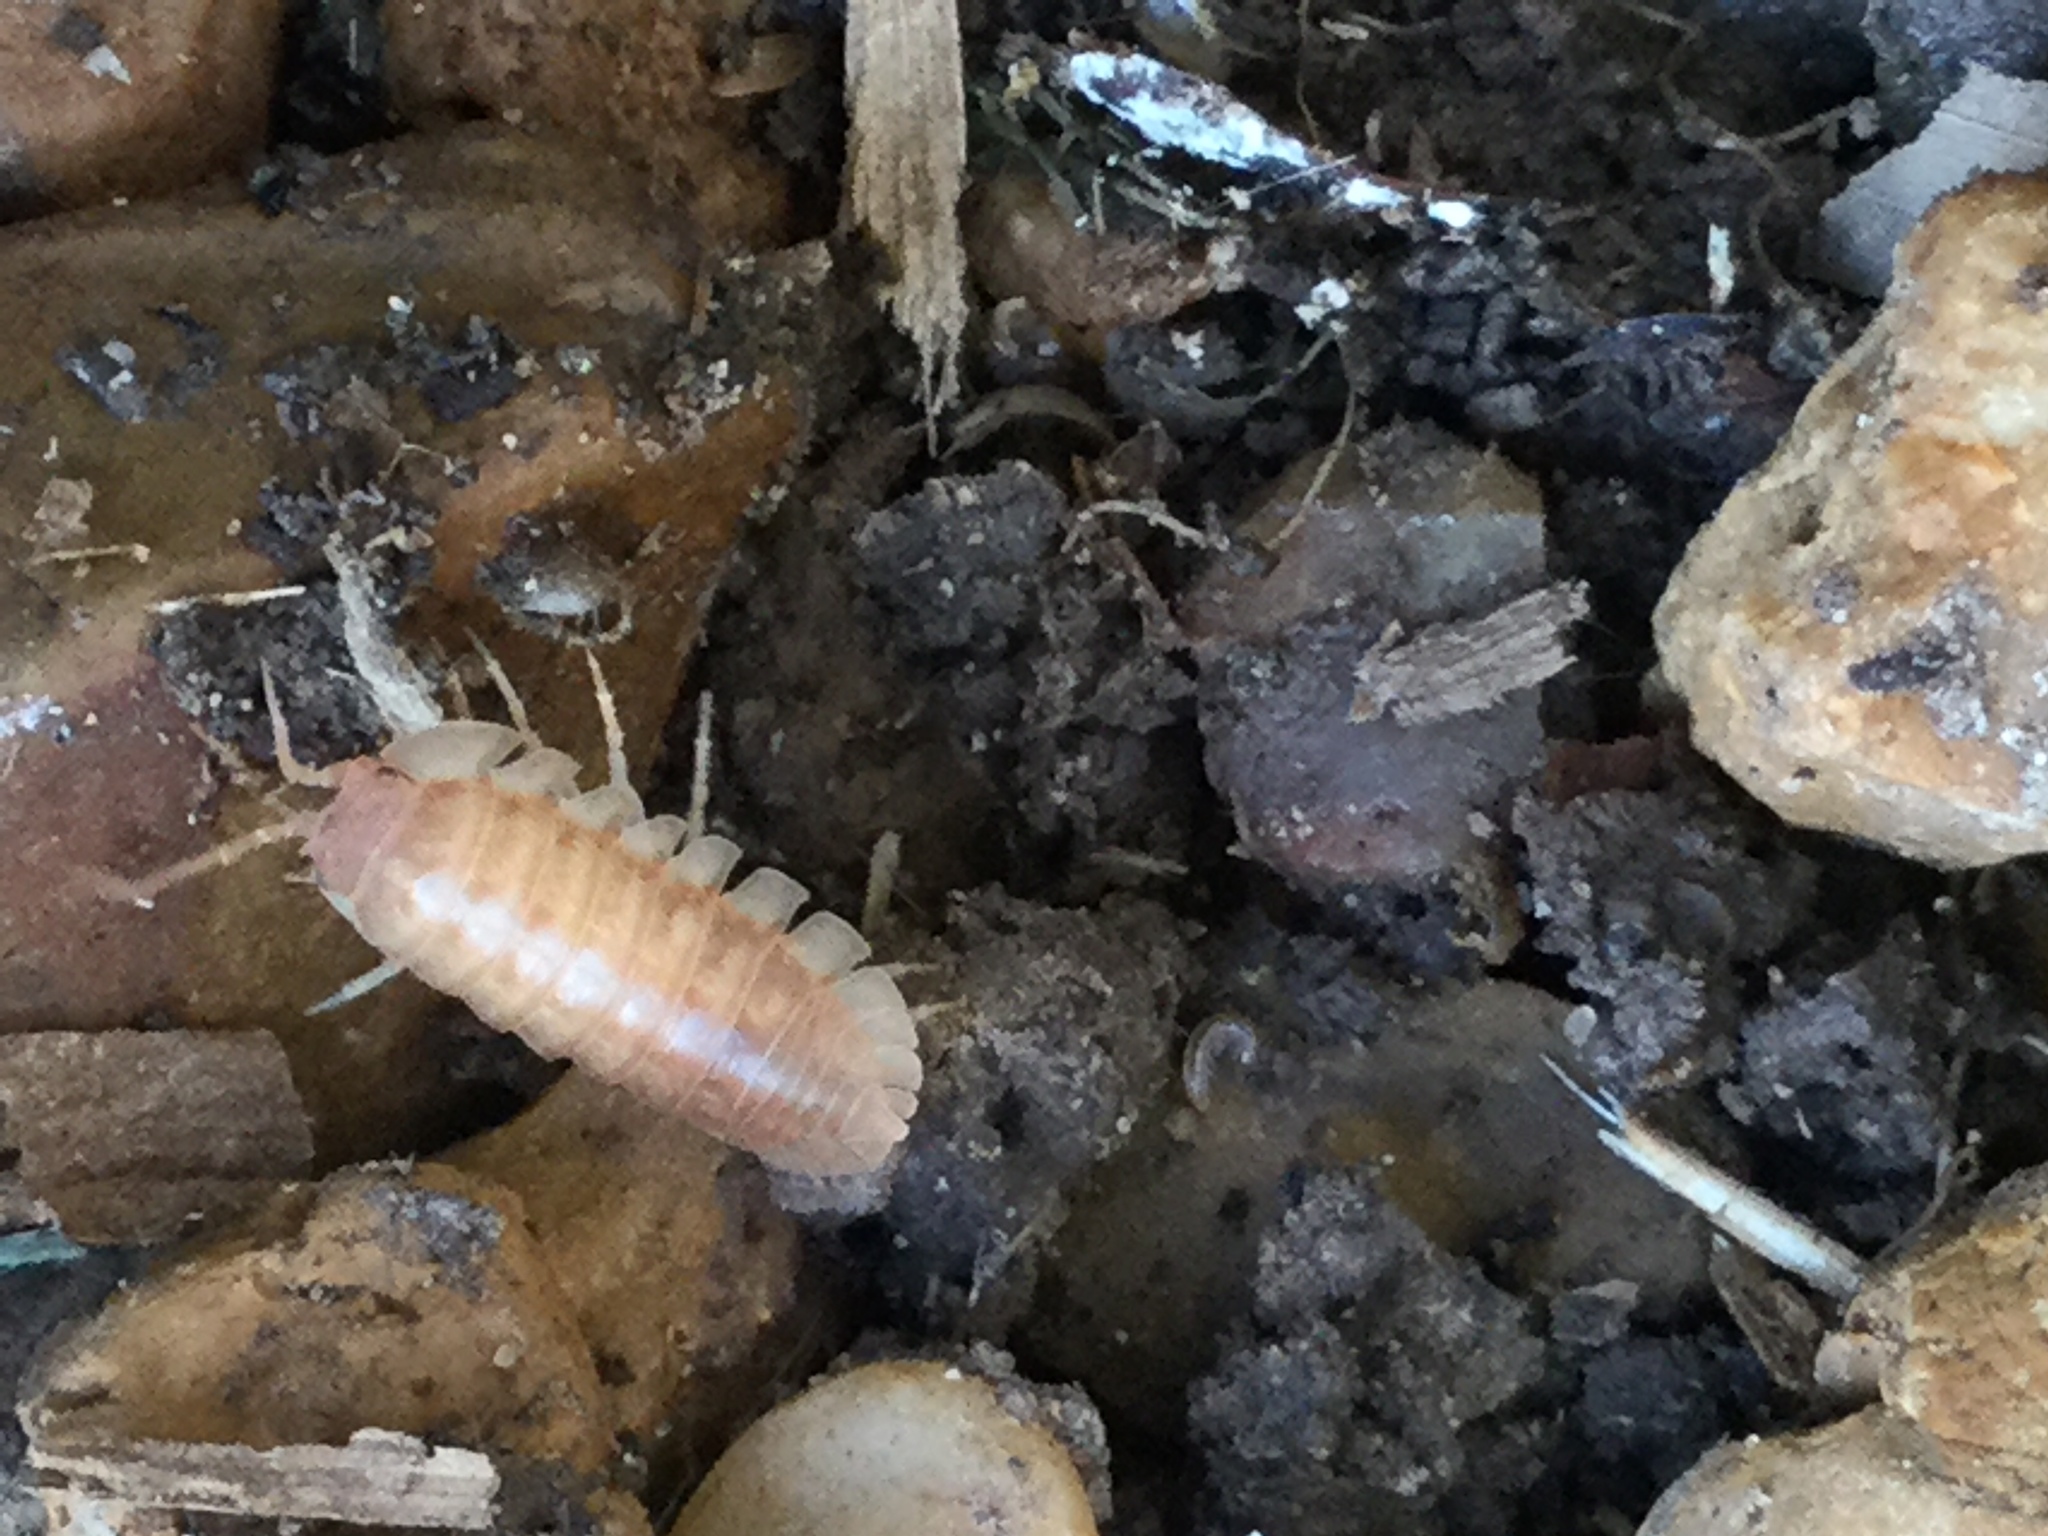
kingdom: Animalia
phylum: Arthropoda
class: Malacostraca
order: Isopoda
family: Armadillidiidae
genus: Armadillidium
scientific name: Armadillidium nasatum
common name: Isopod
